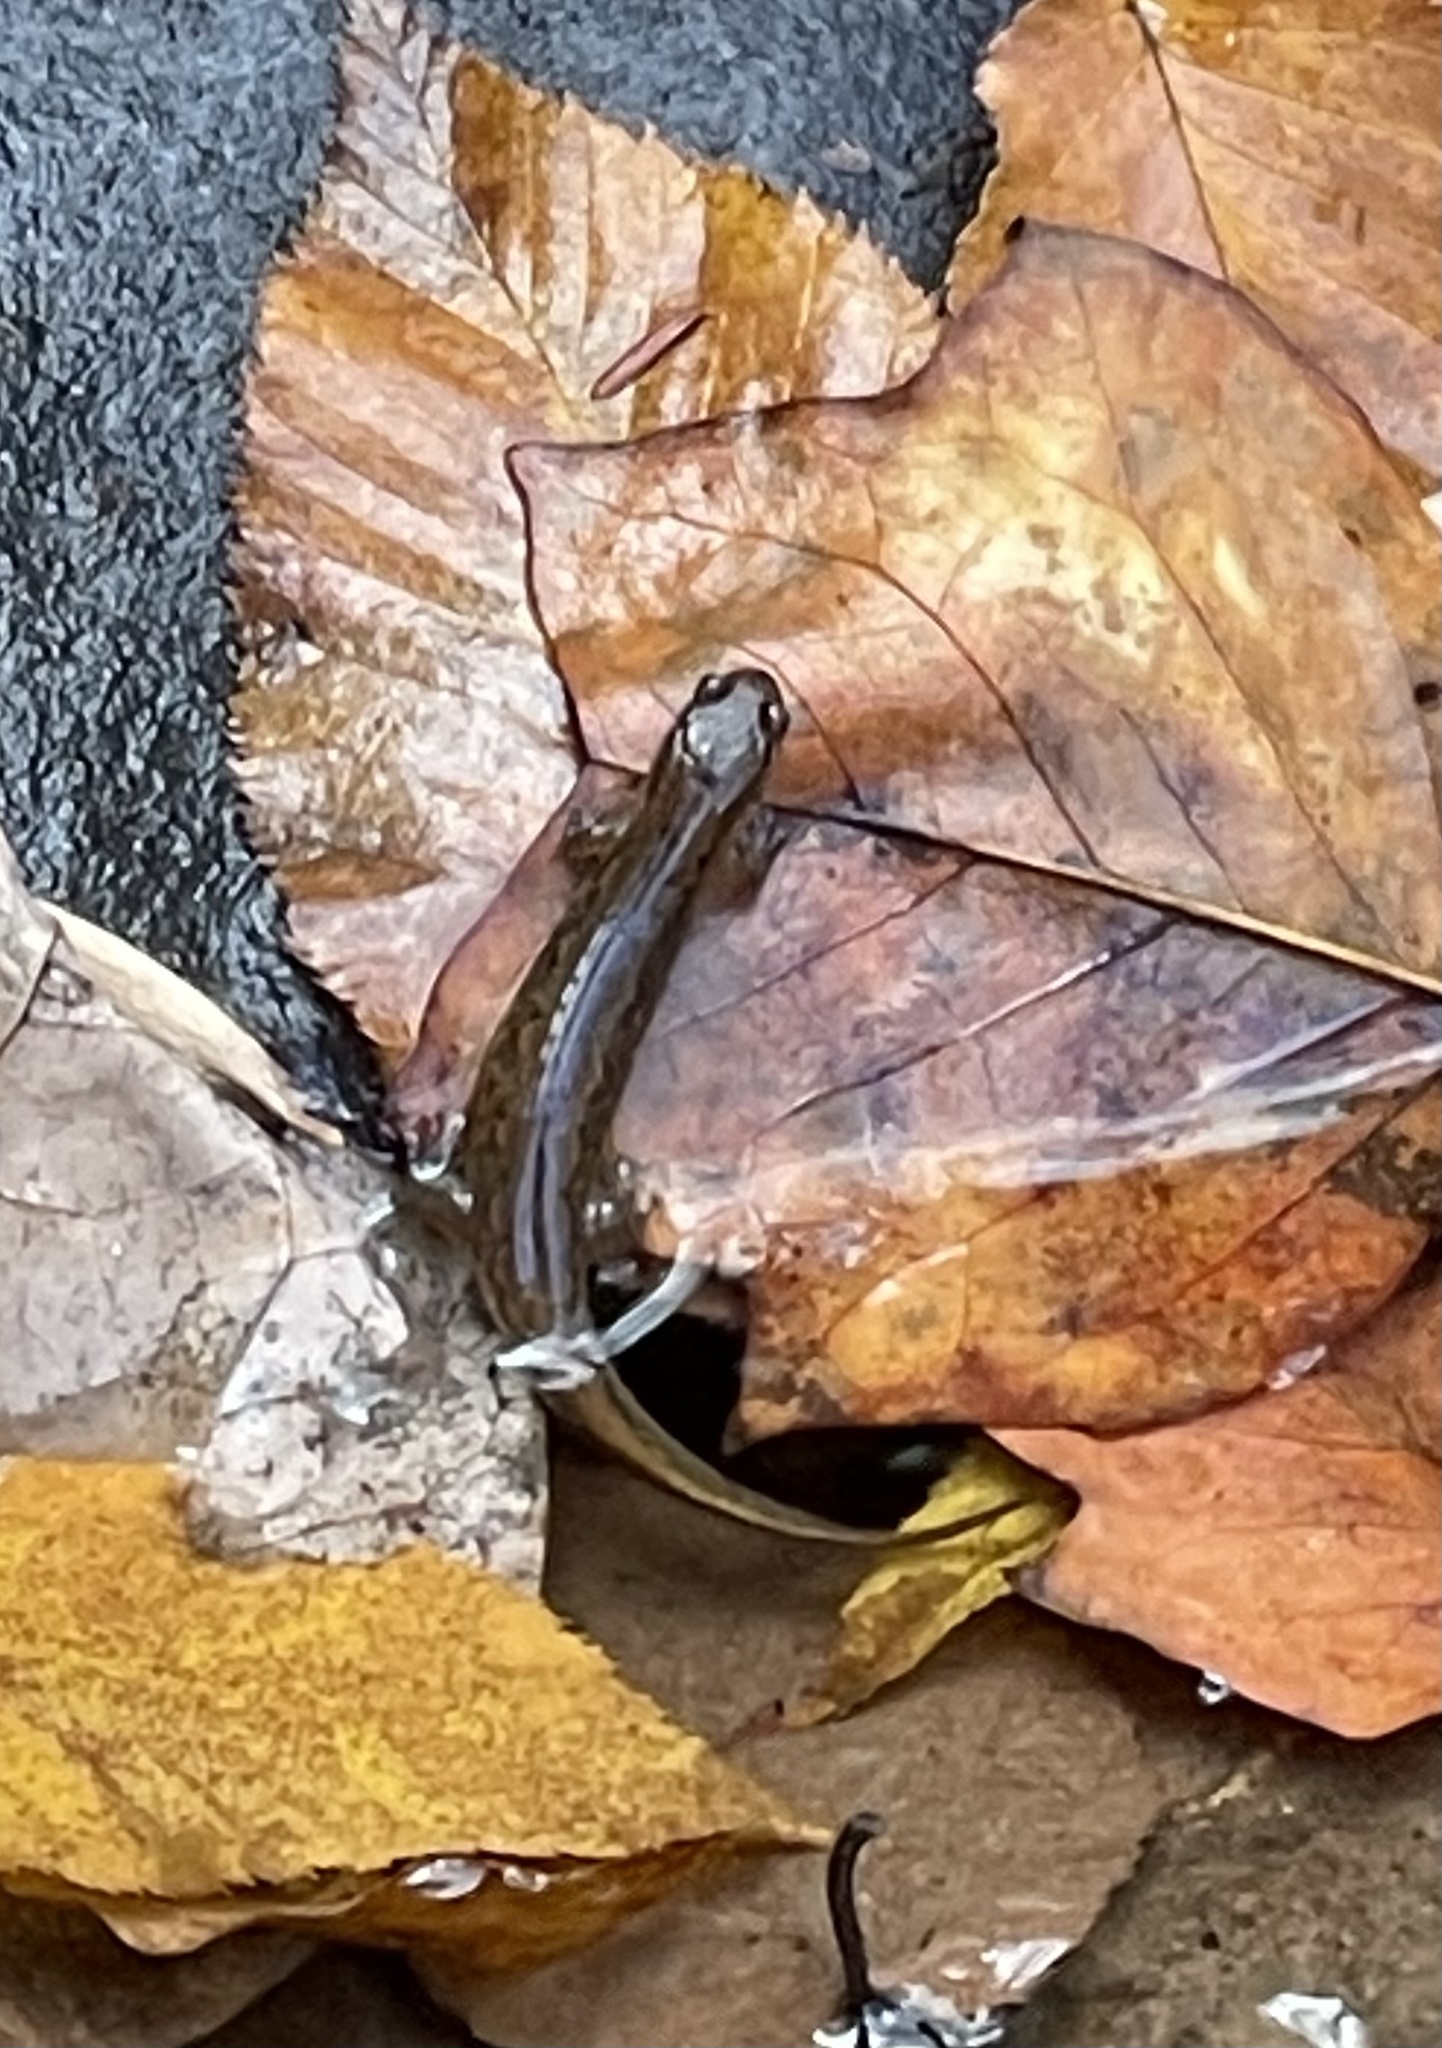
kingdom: Animalia
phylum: Chordata
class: Amphibia
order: Caudata
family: Plethodontidae
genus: Desmognathus
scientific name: Desmognathus fuscus
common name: Northern dusky salamander
